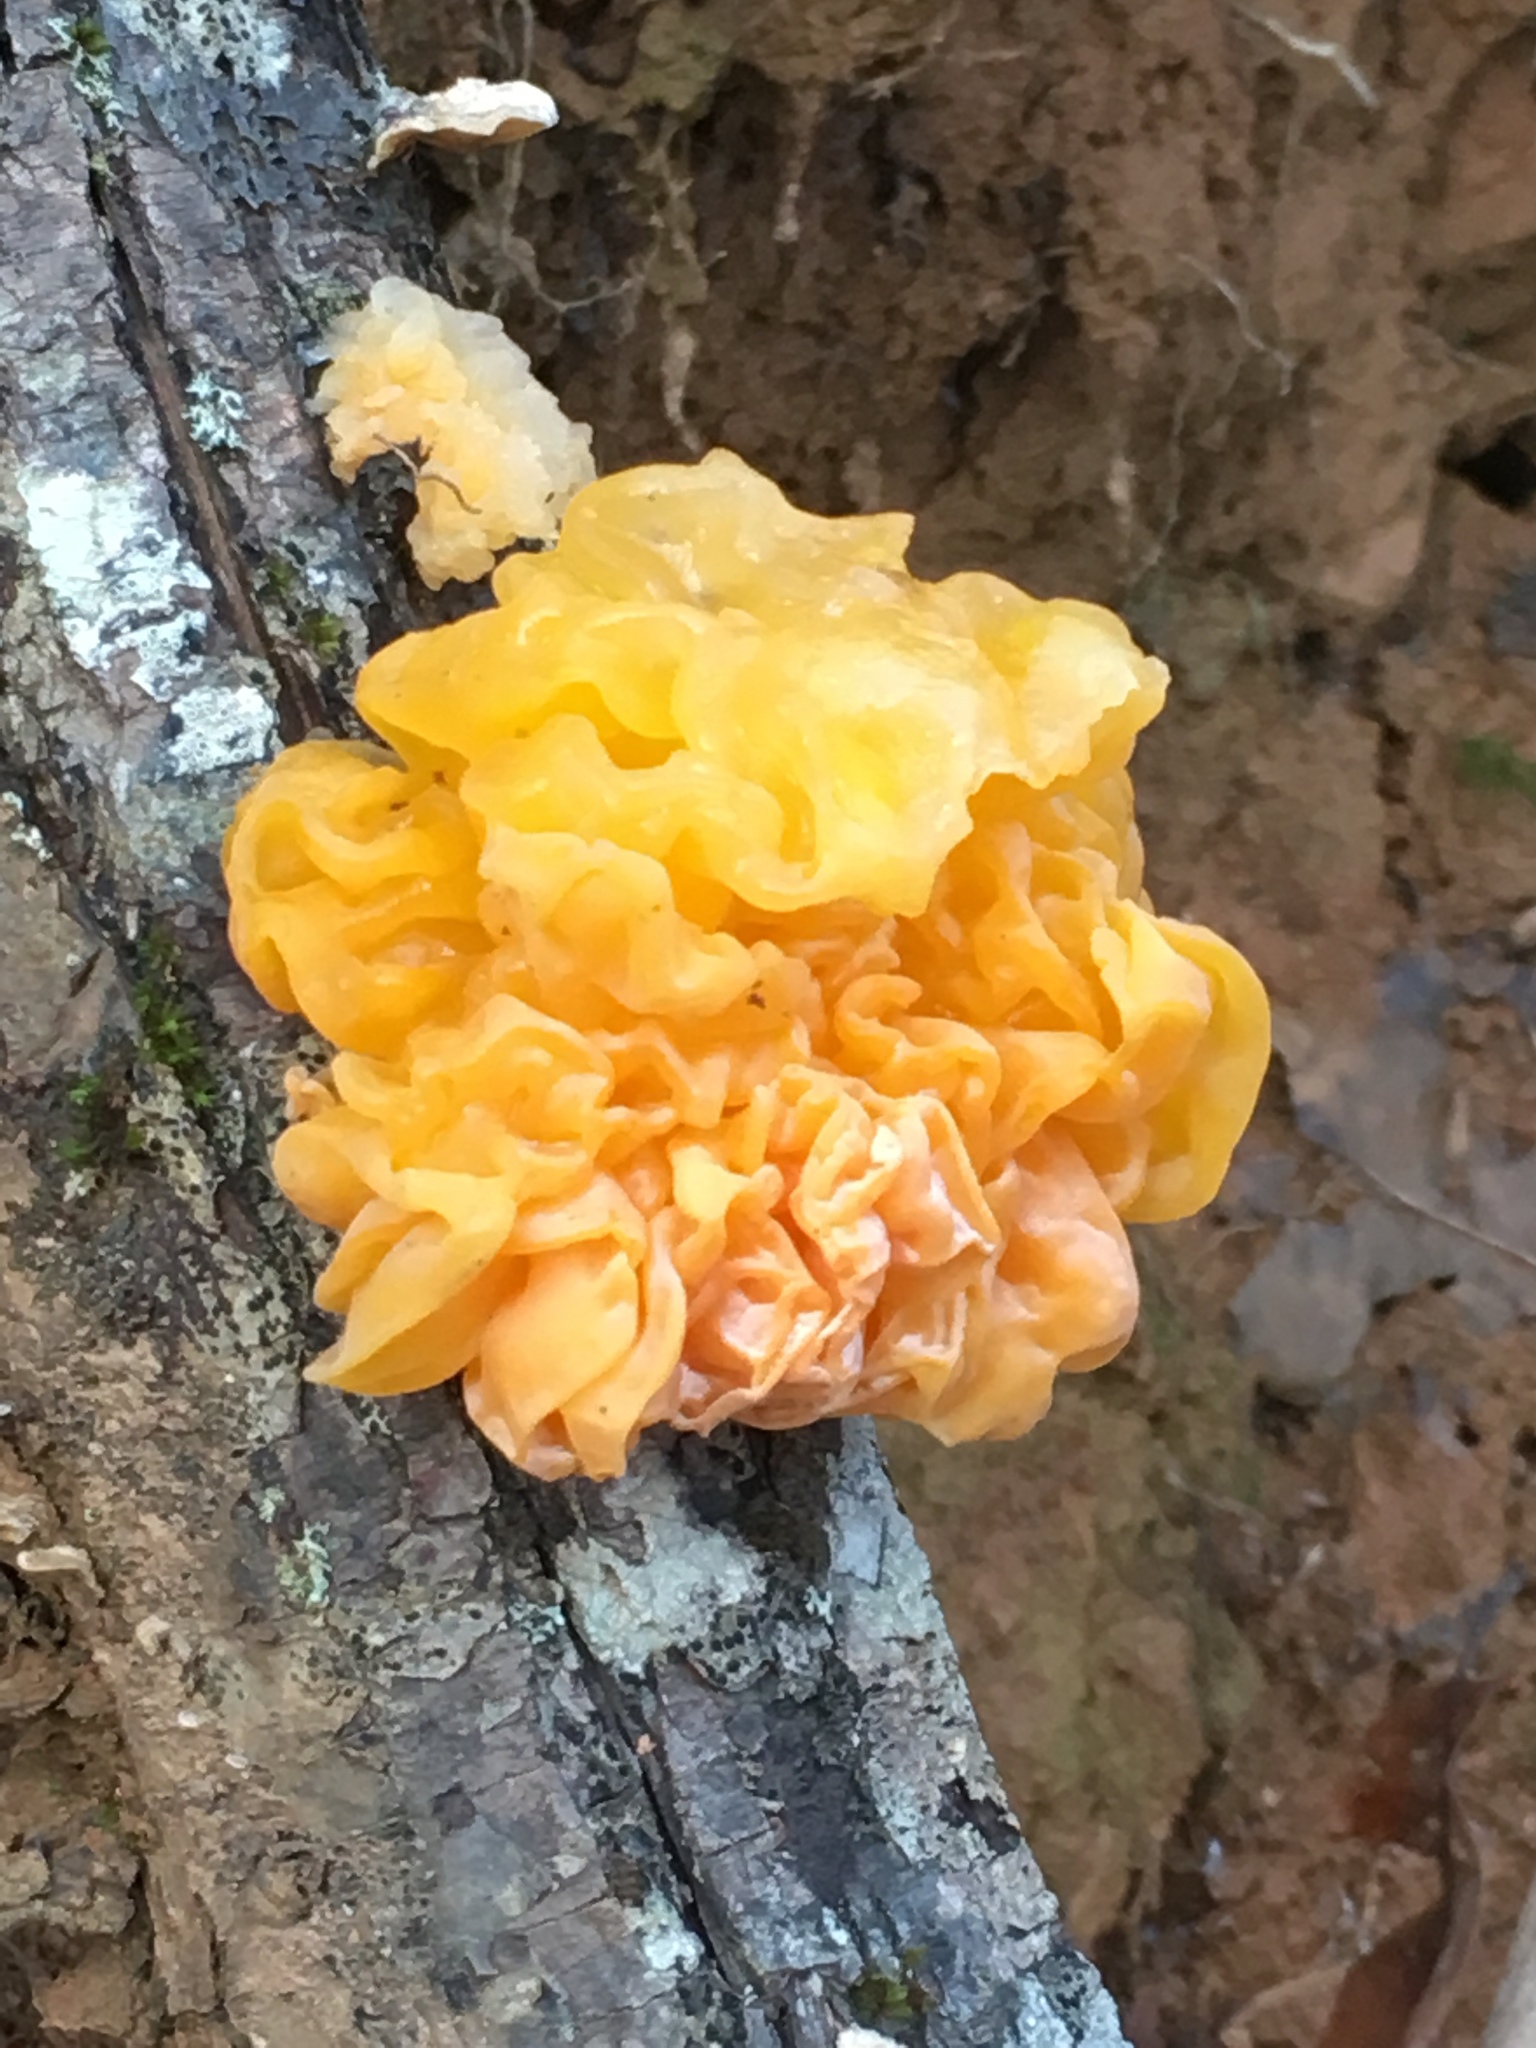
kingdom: Fungi
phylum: Basidiomycota
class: Tremellomycetes
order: Tremellales
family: Naemateliaceae
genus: Naematelia
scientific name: Naematelia aurantia
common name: Golden ear
